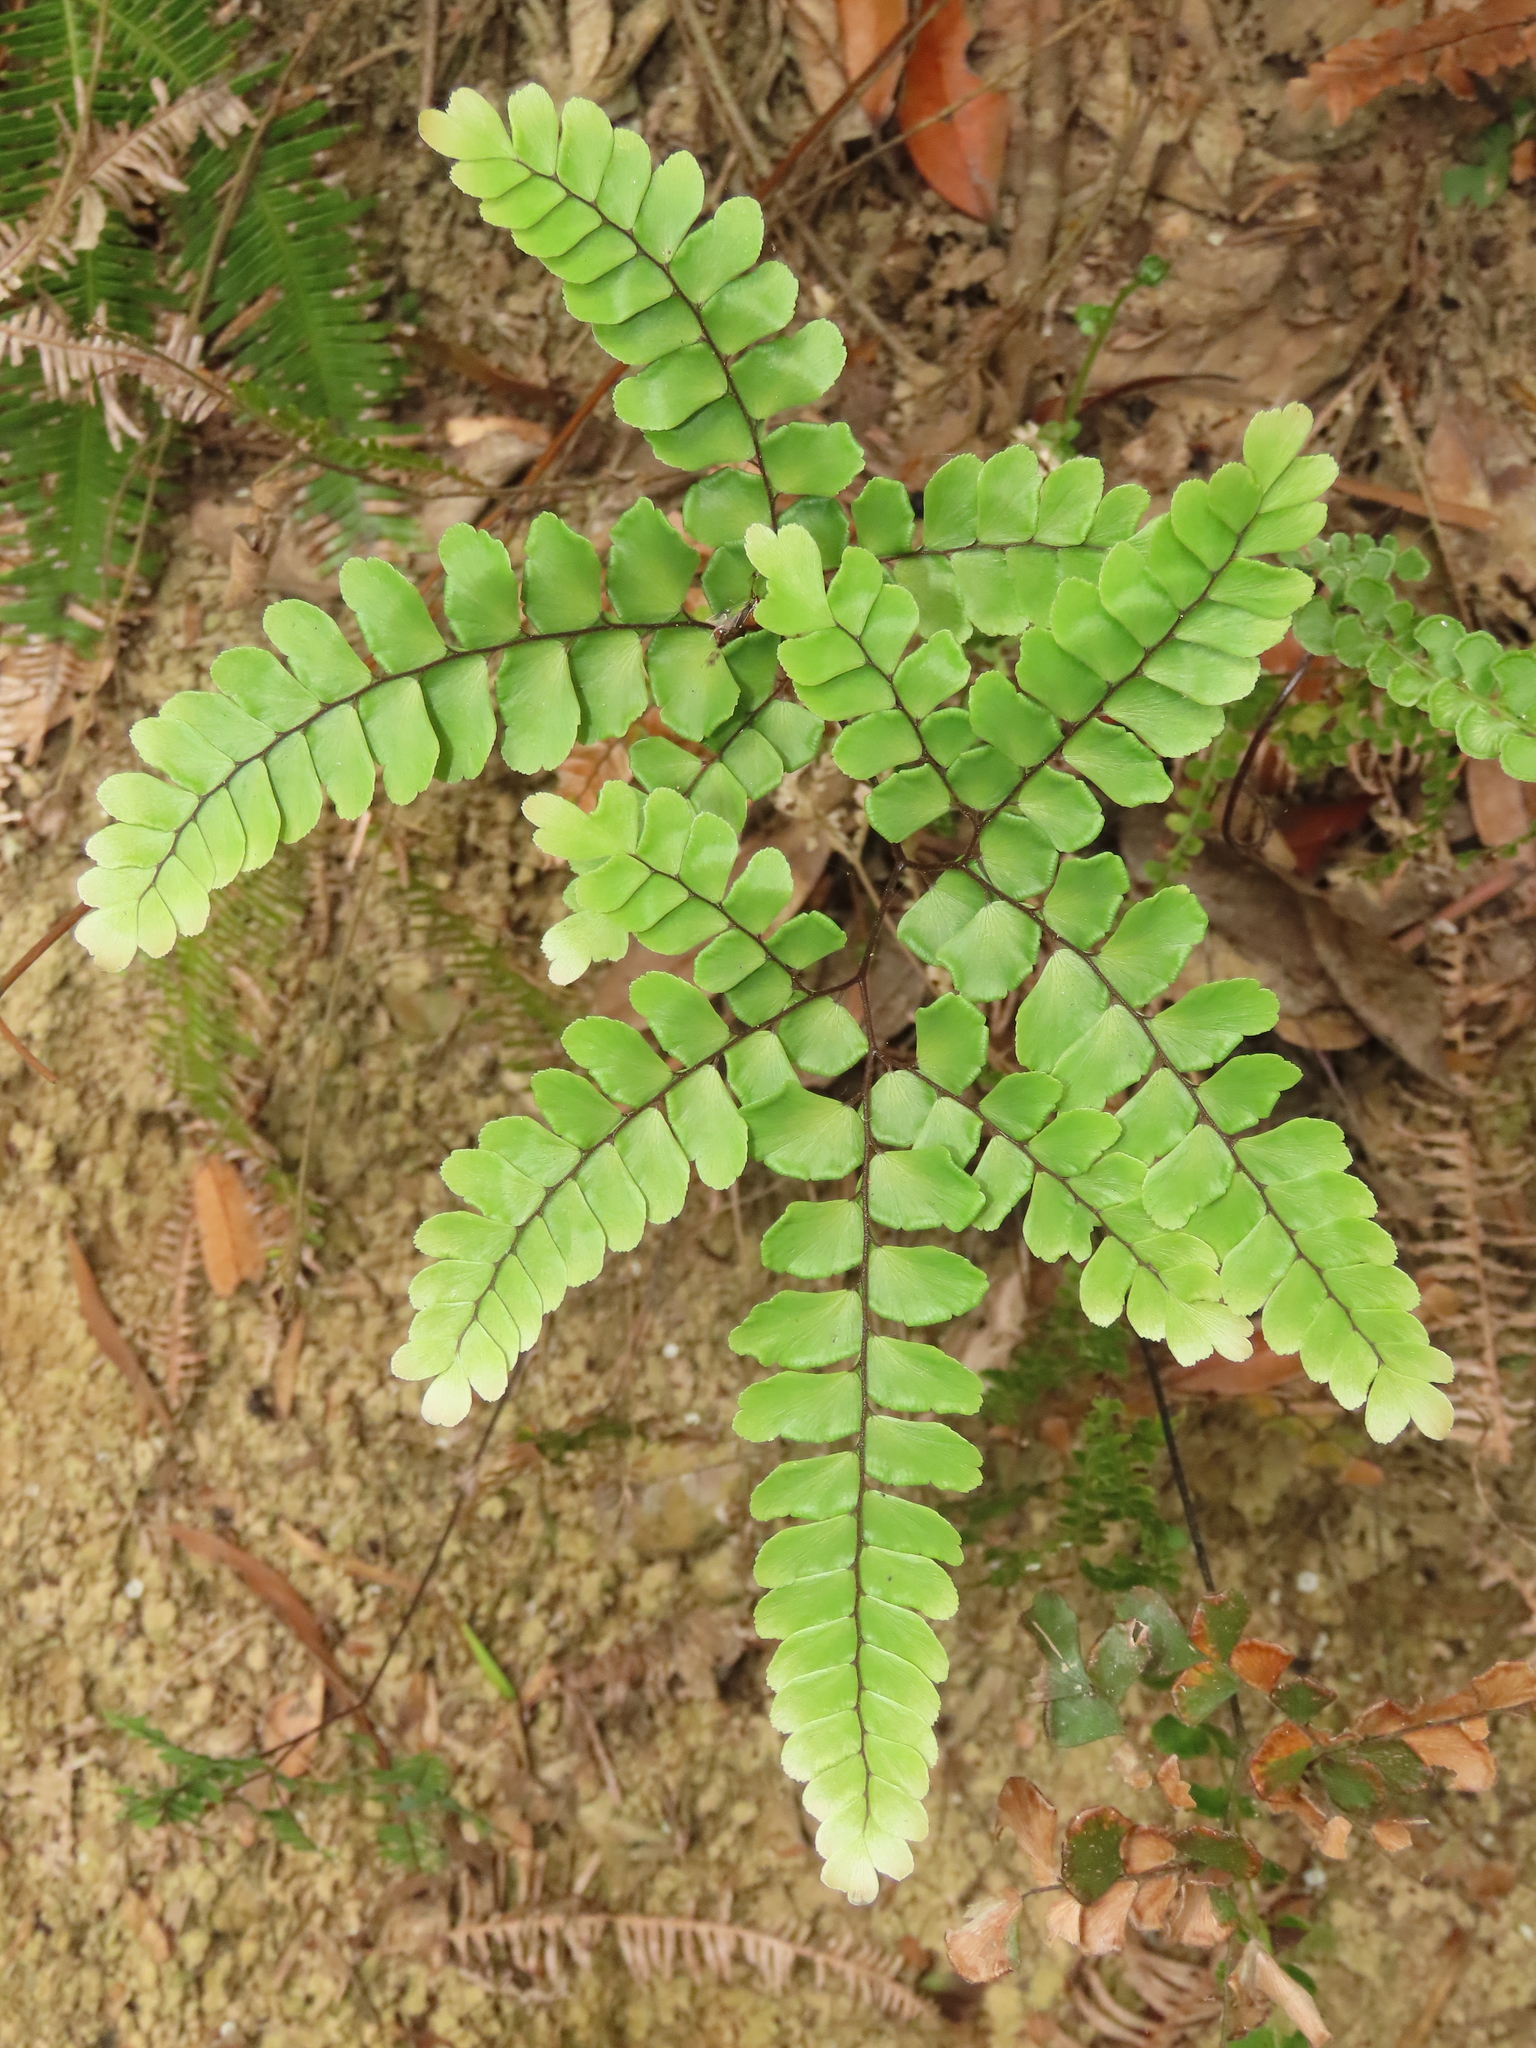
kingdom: Plantae
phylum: Tracheophyta
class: Polypodiopsida
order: Polypodiales
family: Pteridaceae
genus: Adiantum
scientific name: Adiantum flabellulatum
